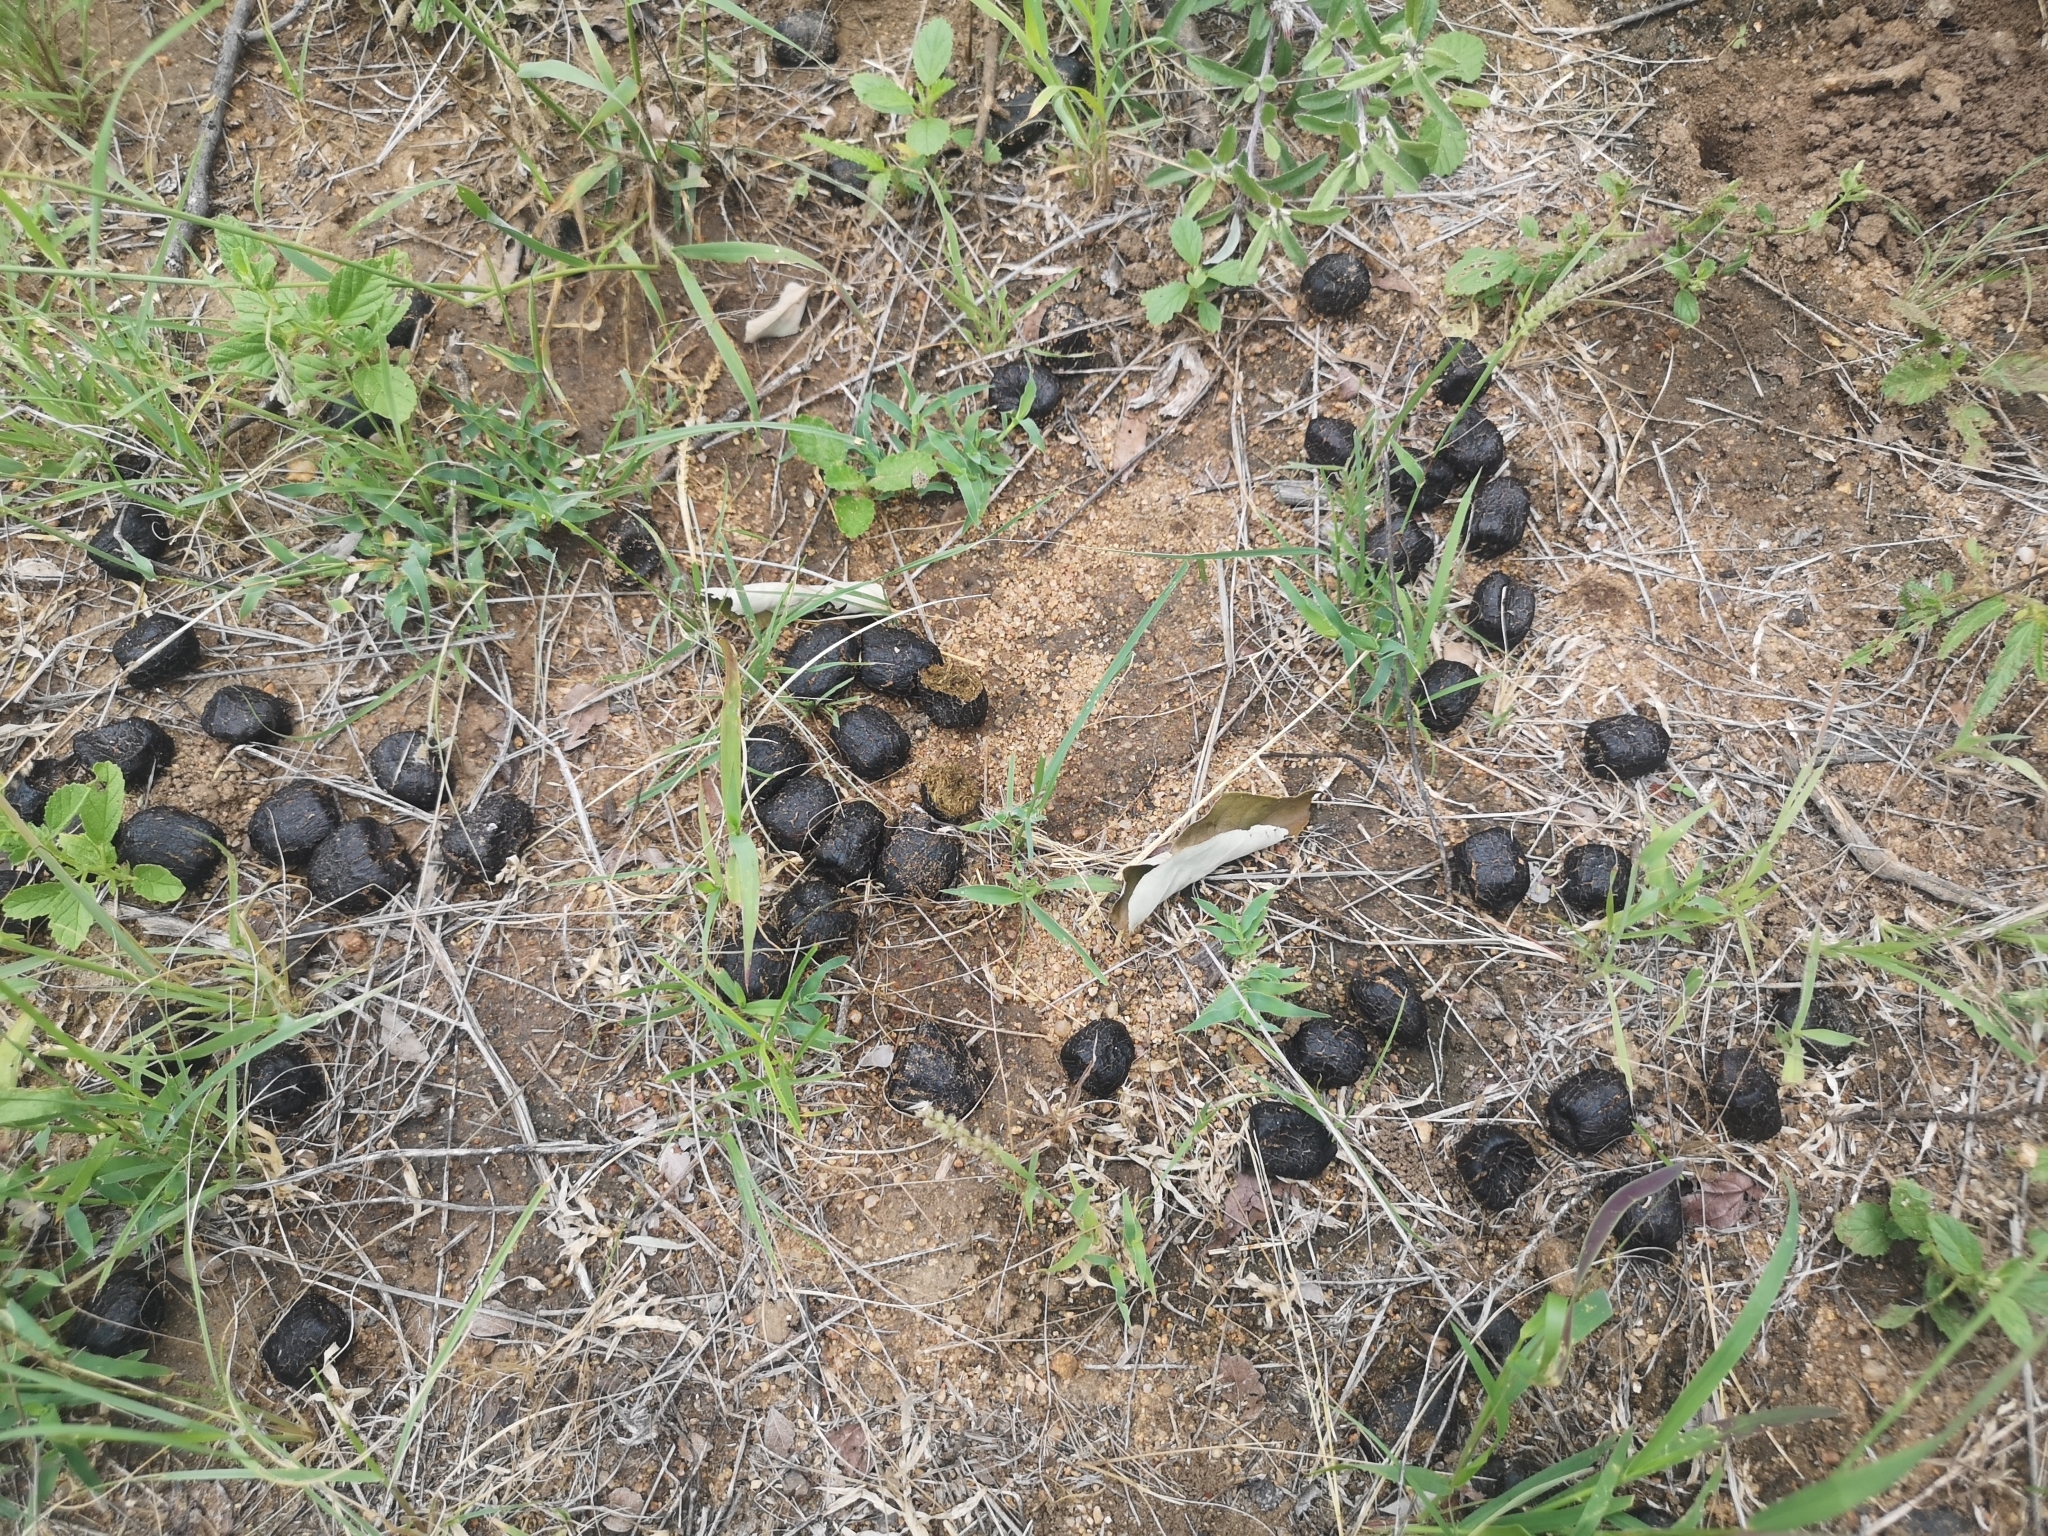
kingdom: Animalia
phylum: Chordata
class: Mammalia
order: Artiodactyla
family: Giraffidae
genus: Giraffa
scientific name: Giraffa giraffa
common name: Southern giraffe
